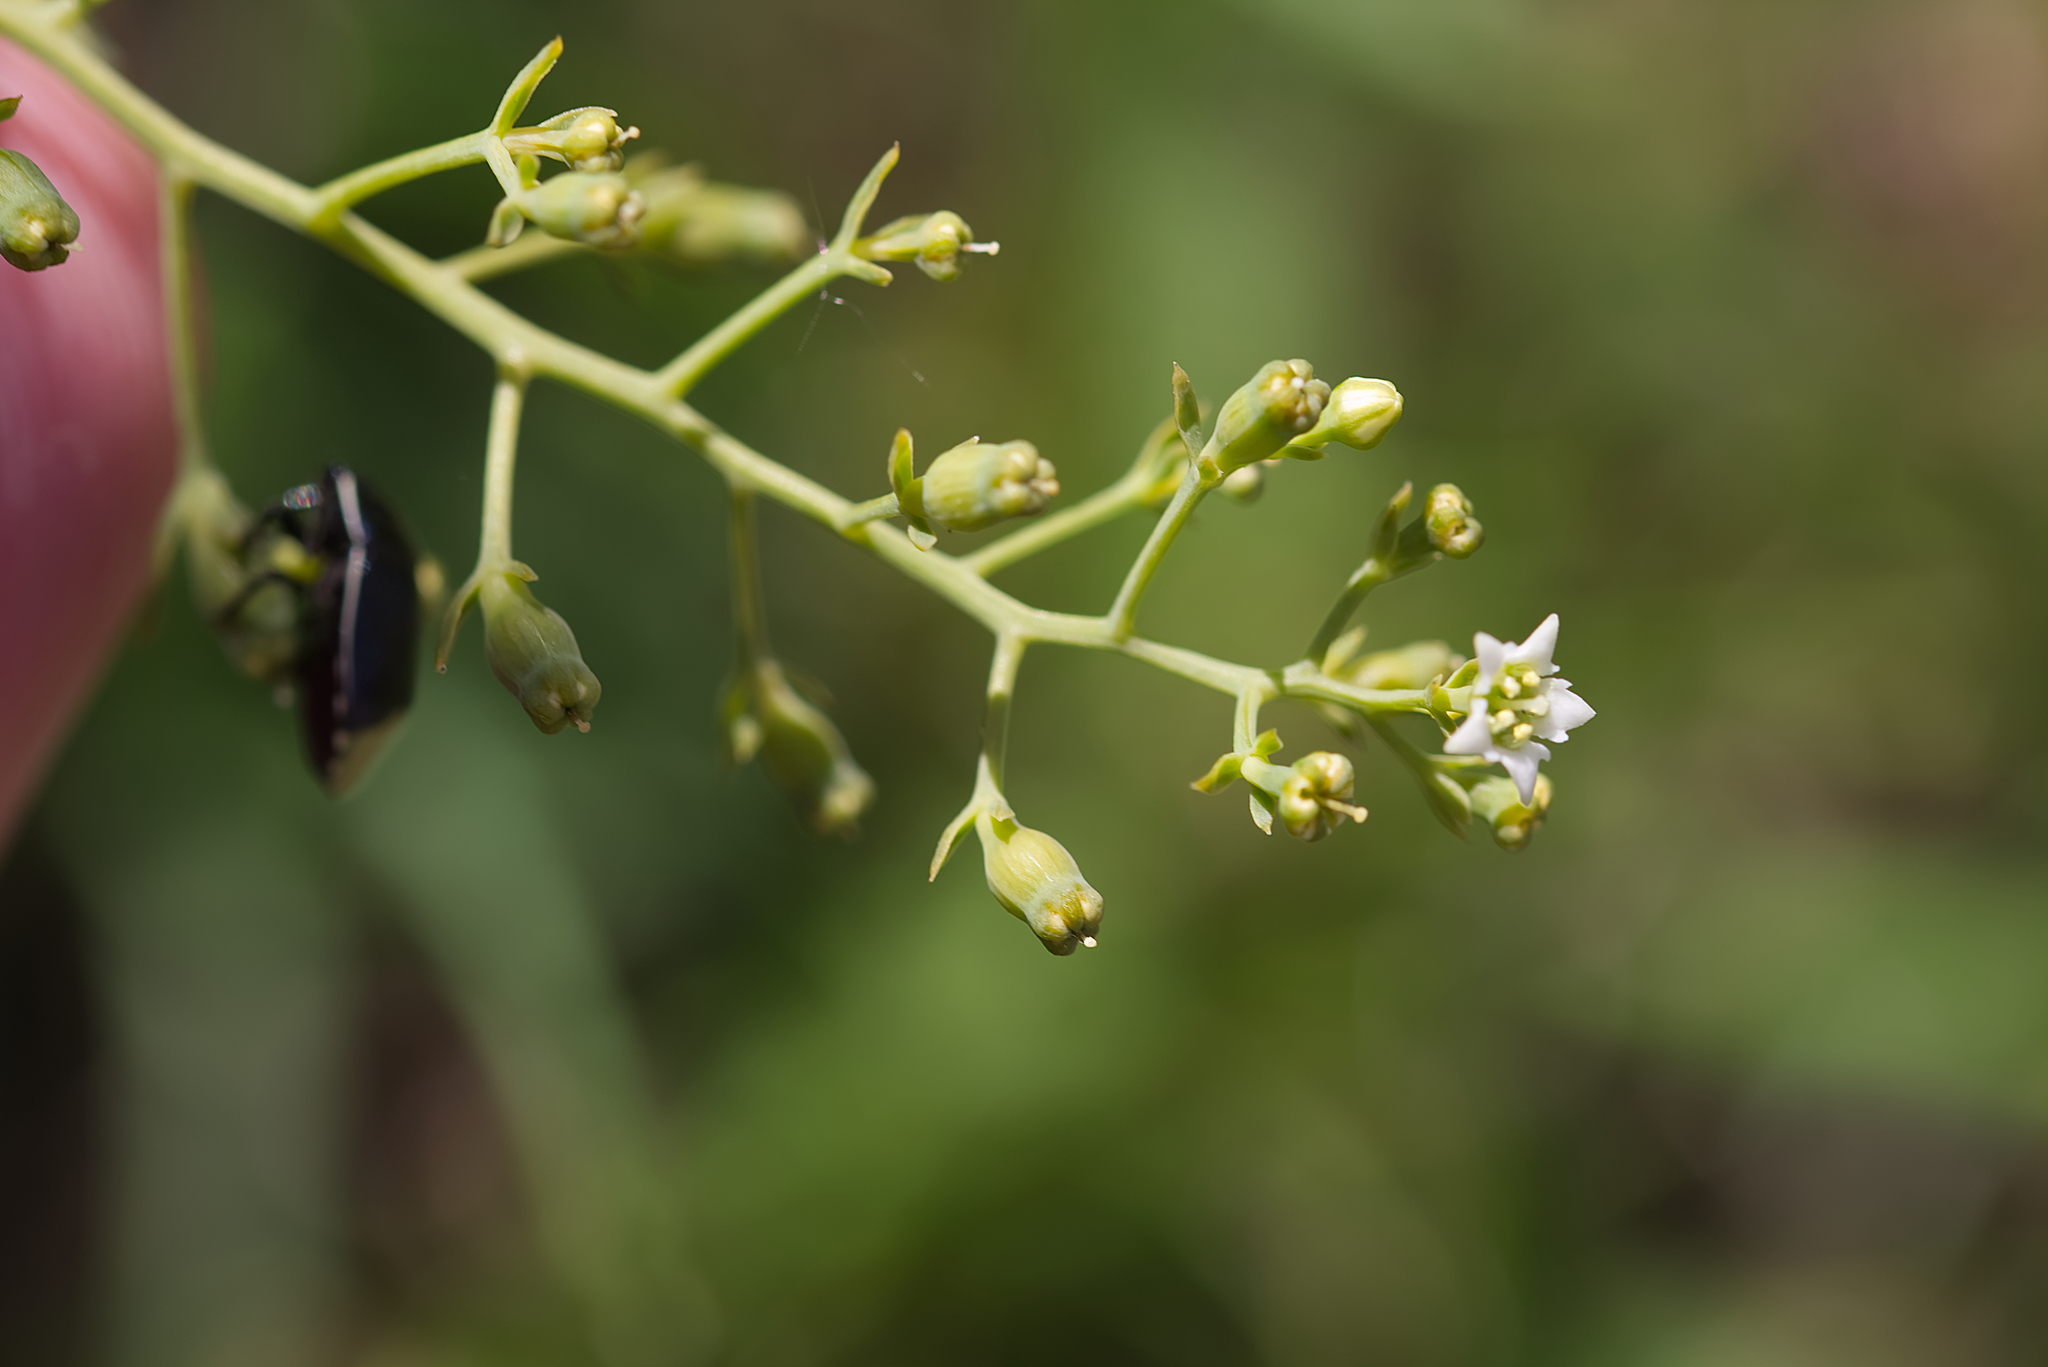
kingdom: Plantae
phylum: Tracheophyta
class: Magnoliopsida
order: Santalales
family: Thesiaceae
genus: Thesium
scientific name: Thesium linophyllon
